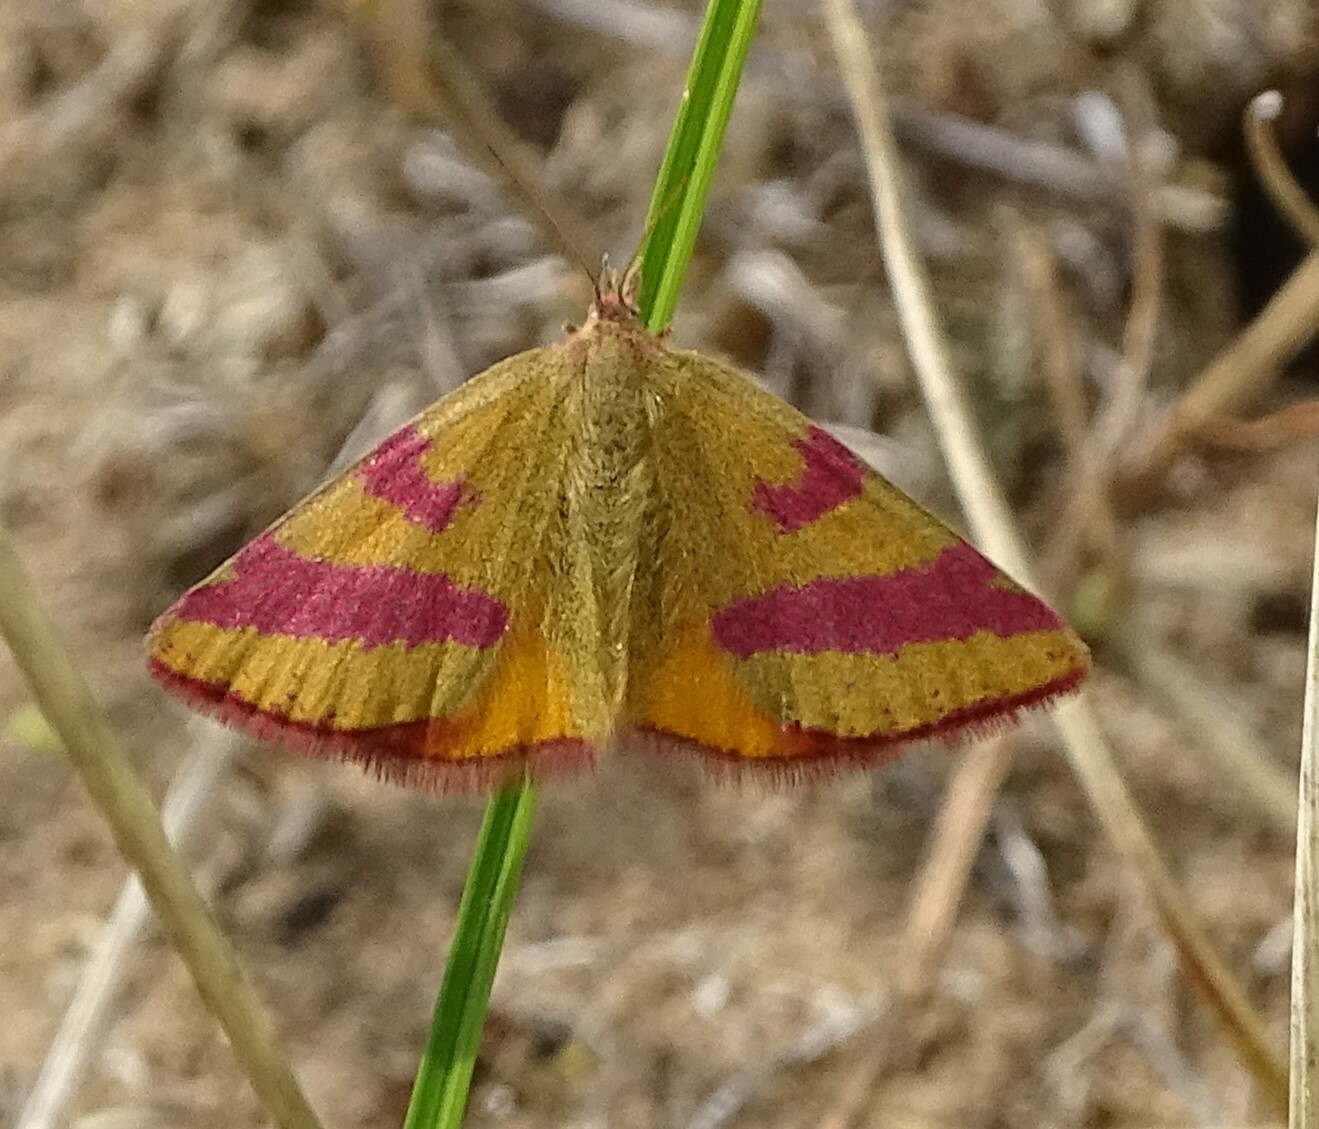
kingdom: Animalia
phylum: Arthropoda
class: Insecta
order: Lepidoptera
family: Geometridae
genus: Lythria
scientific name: Lythria cruentaria
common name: Purple-barred yellow
